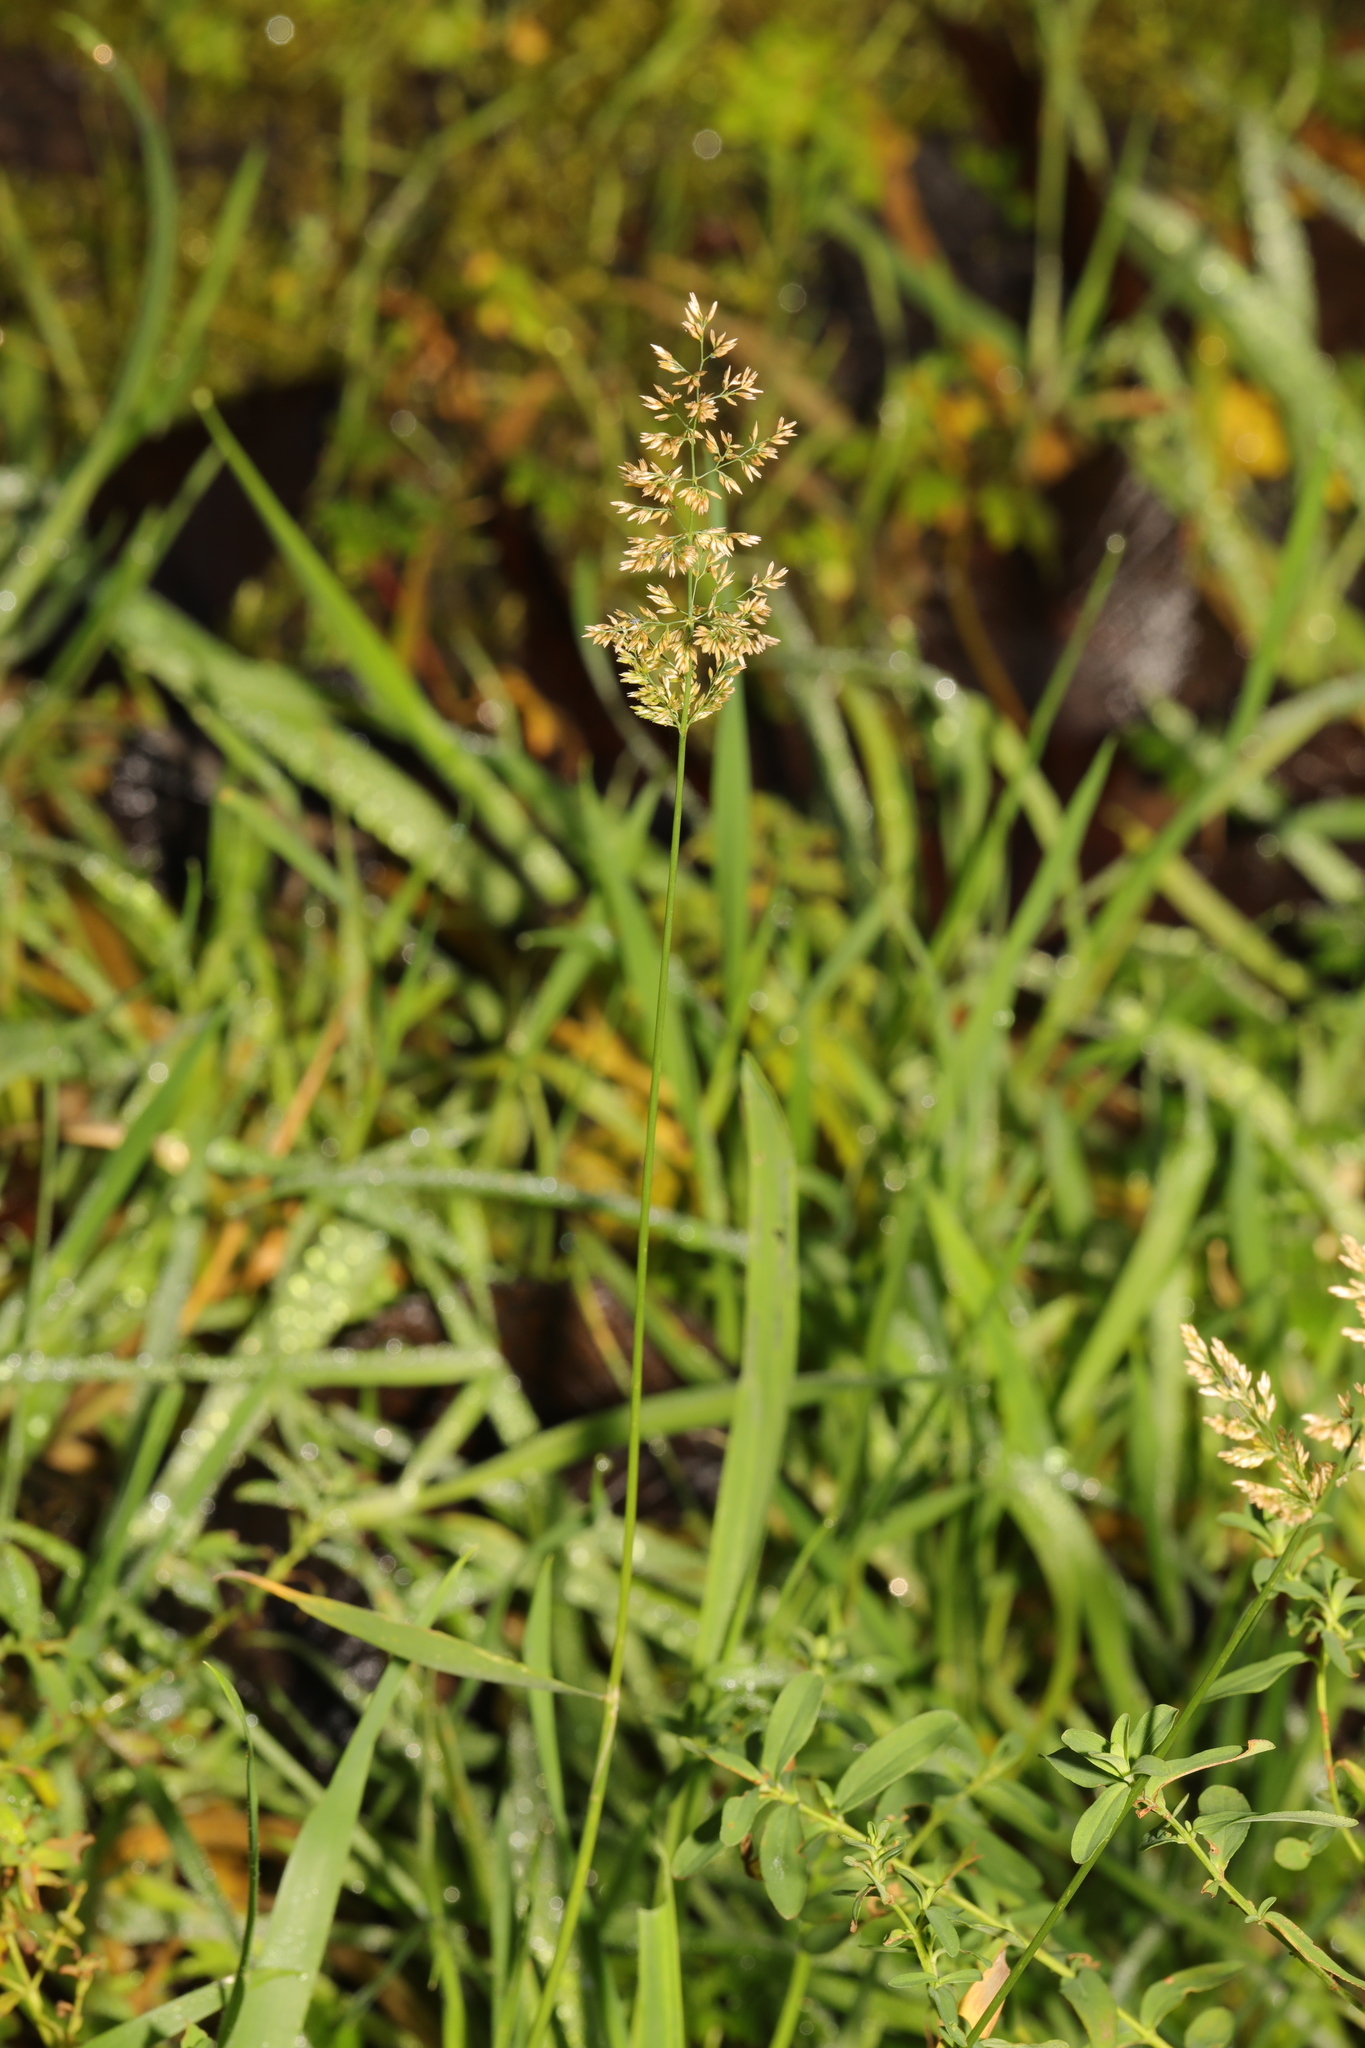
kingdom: Plantae
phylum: Tracheophyta
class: Liliopsida
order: Poales
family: Poaceae
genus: Poa
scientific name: Poa annua
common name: Annual bluegrass
